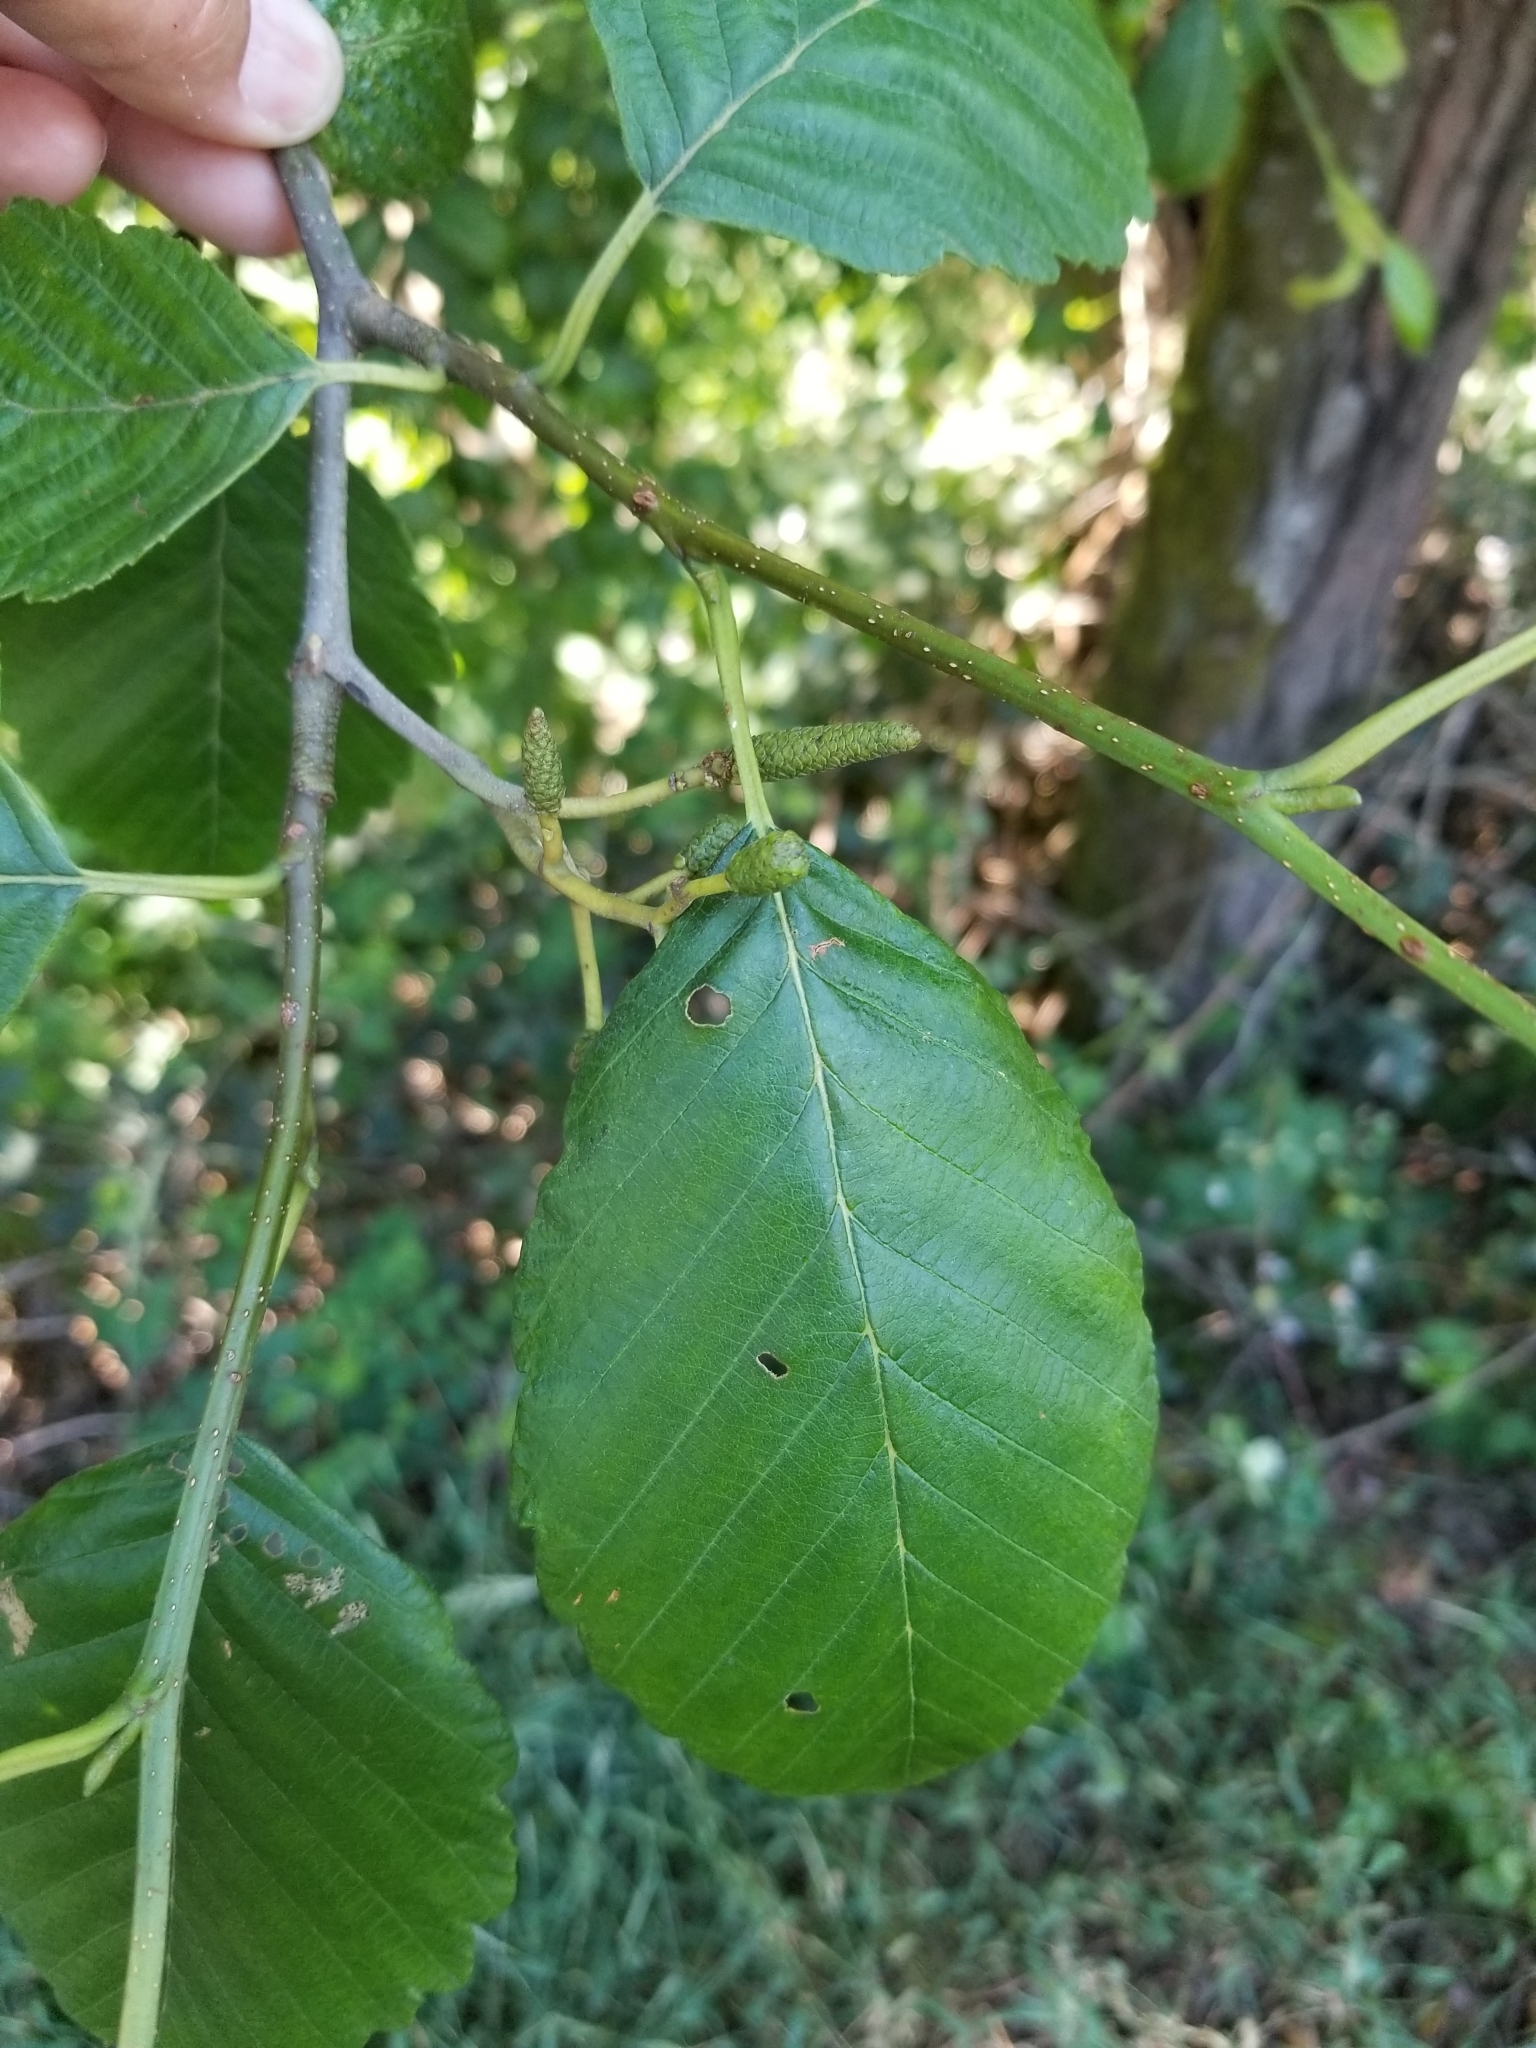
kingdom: Plantae
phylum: Tracheophyta
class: Magnoliopsida
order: Fagales
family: Betulaceae
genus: Alnus
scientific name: Alnus rubra
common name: Red alder
